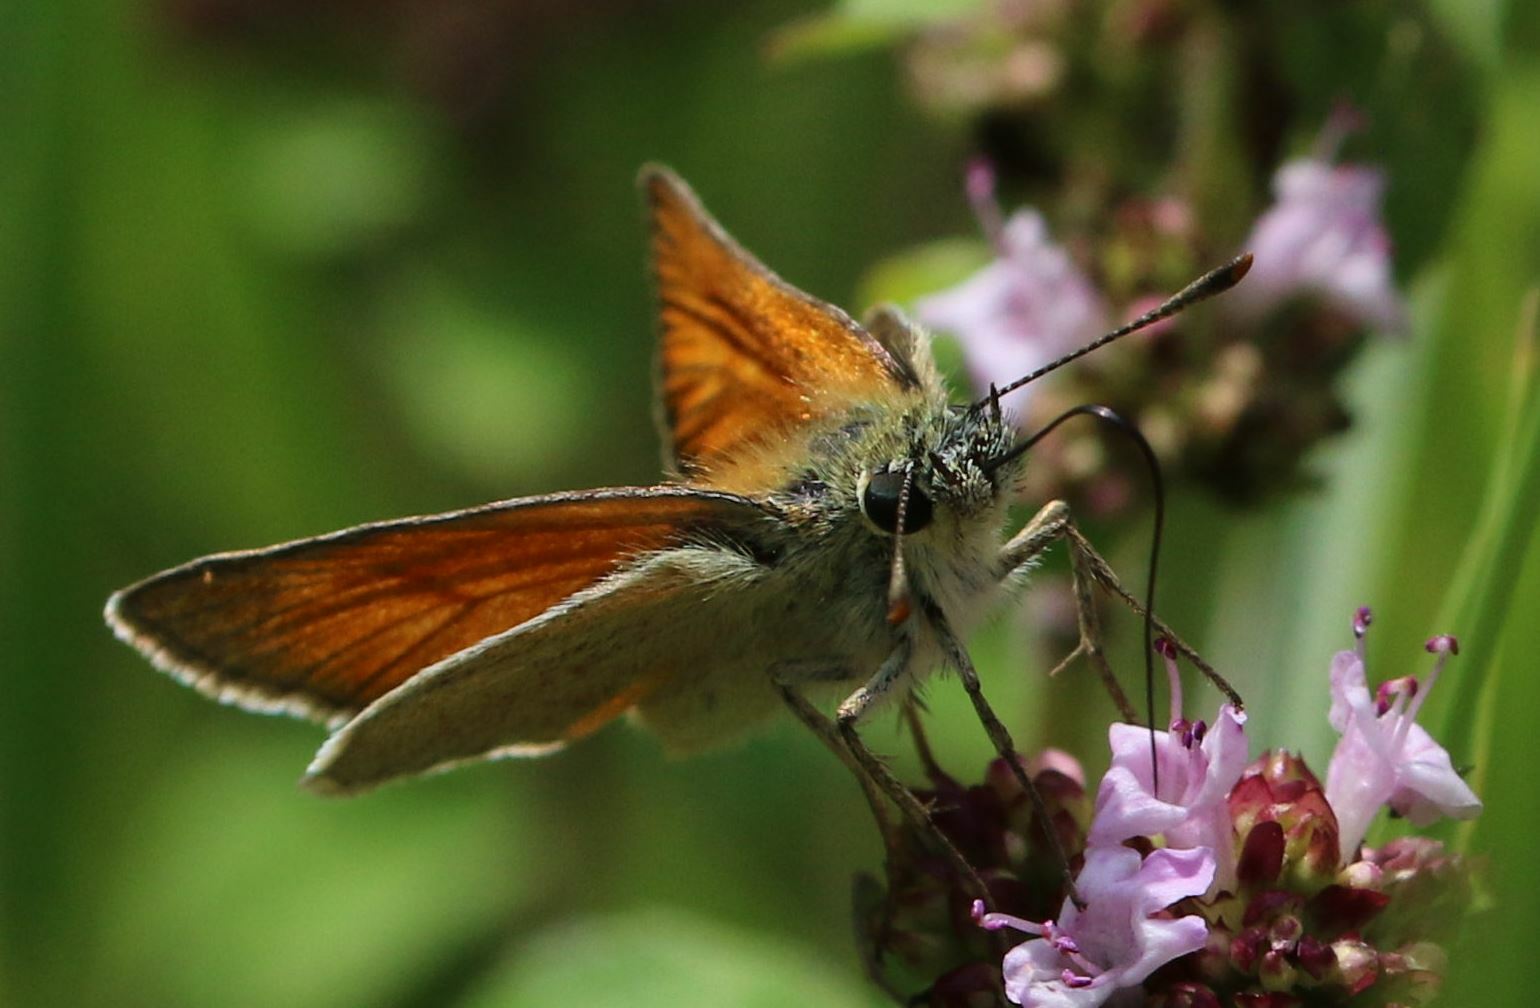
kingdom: Animalia
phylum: Arthropoda
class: Insecta
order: Lepidoptera
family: Hesperiidae
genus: Thymelicus
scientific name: Thymelicus sylvestris
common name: Small skipper
